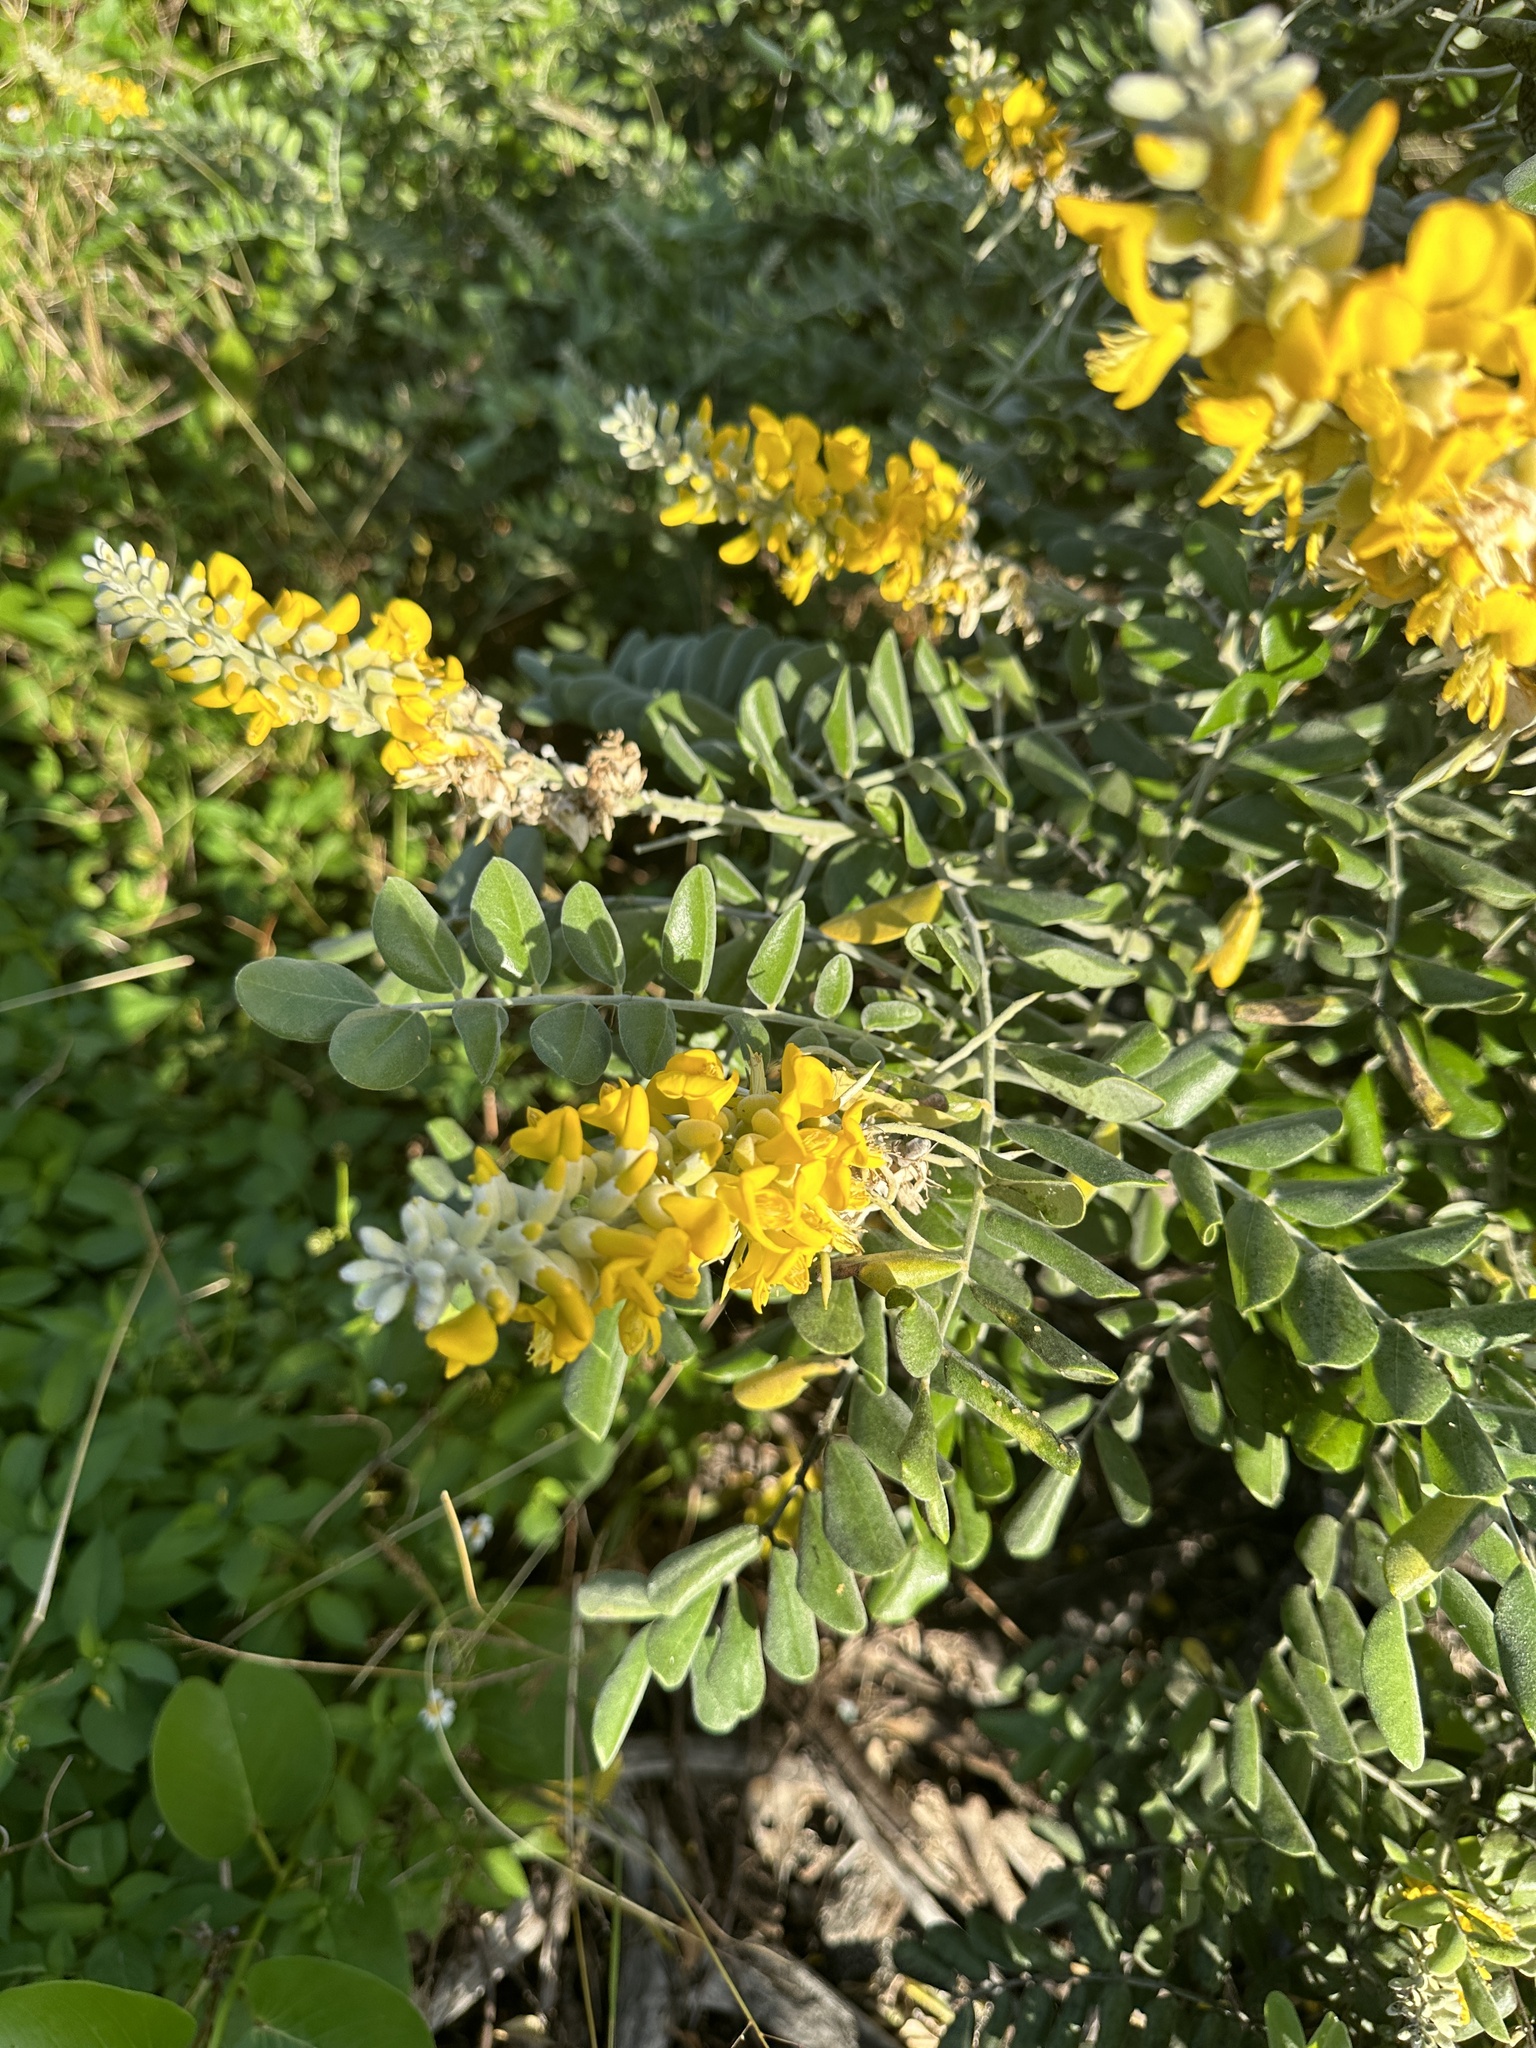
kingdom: Plantae
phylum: Tracheophyta
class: Magnoliopsida
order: Fabales
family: Fabaceae
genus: Sophora
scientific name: Sophora tomentosa
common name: Yellow necklacepod
